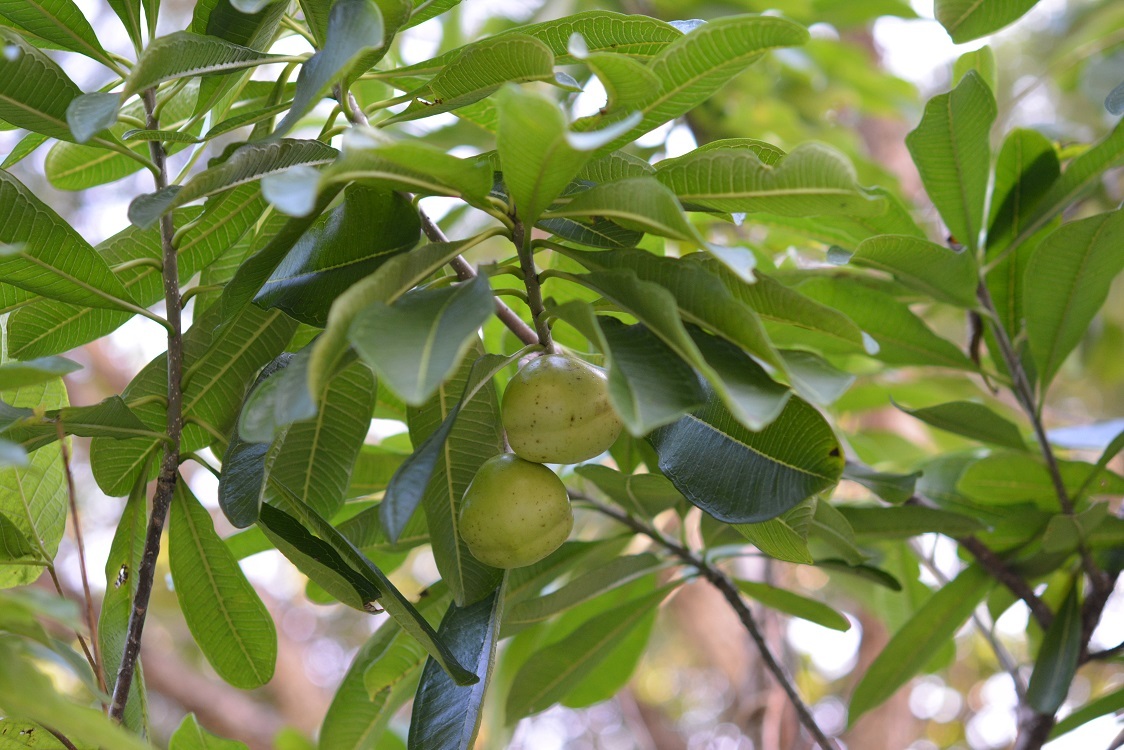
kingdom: Plantae
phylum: Tracheophyta
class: Magnoliopsida
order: Gentianales
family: Apocynaceae
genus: Cascabela
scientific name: Cascabela ovata
